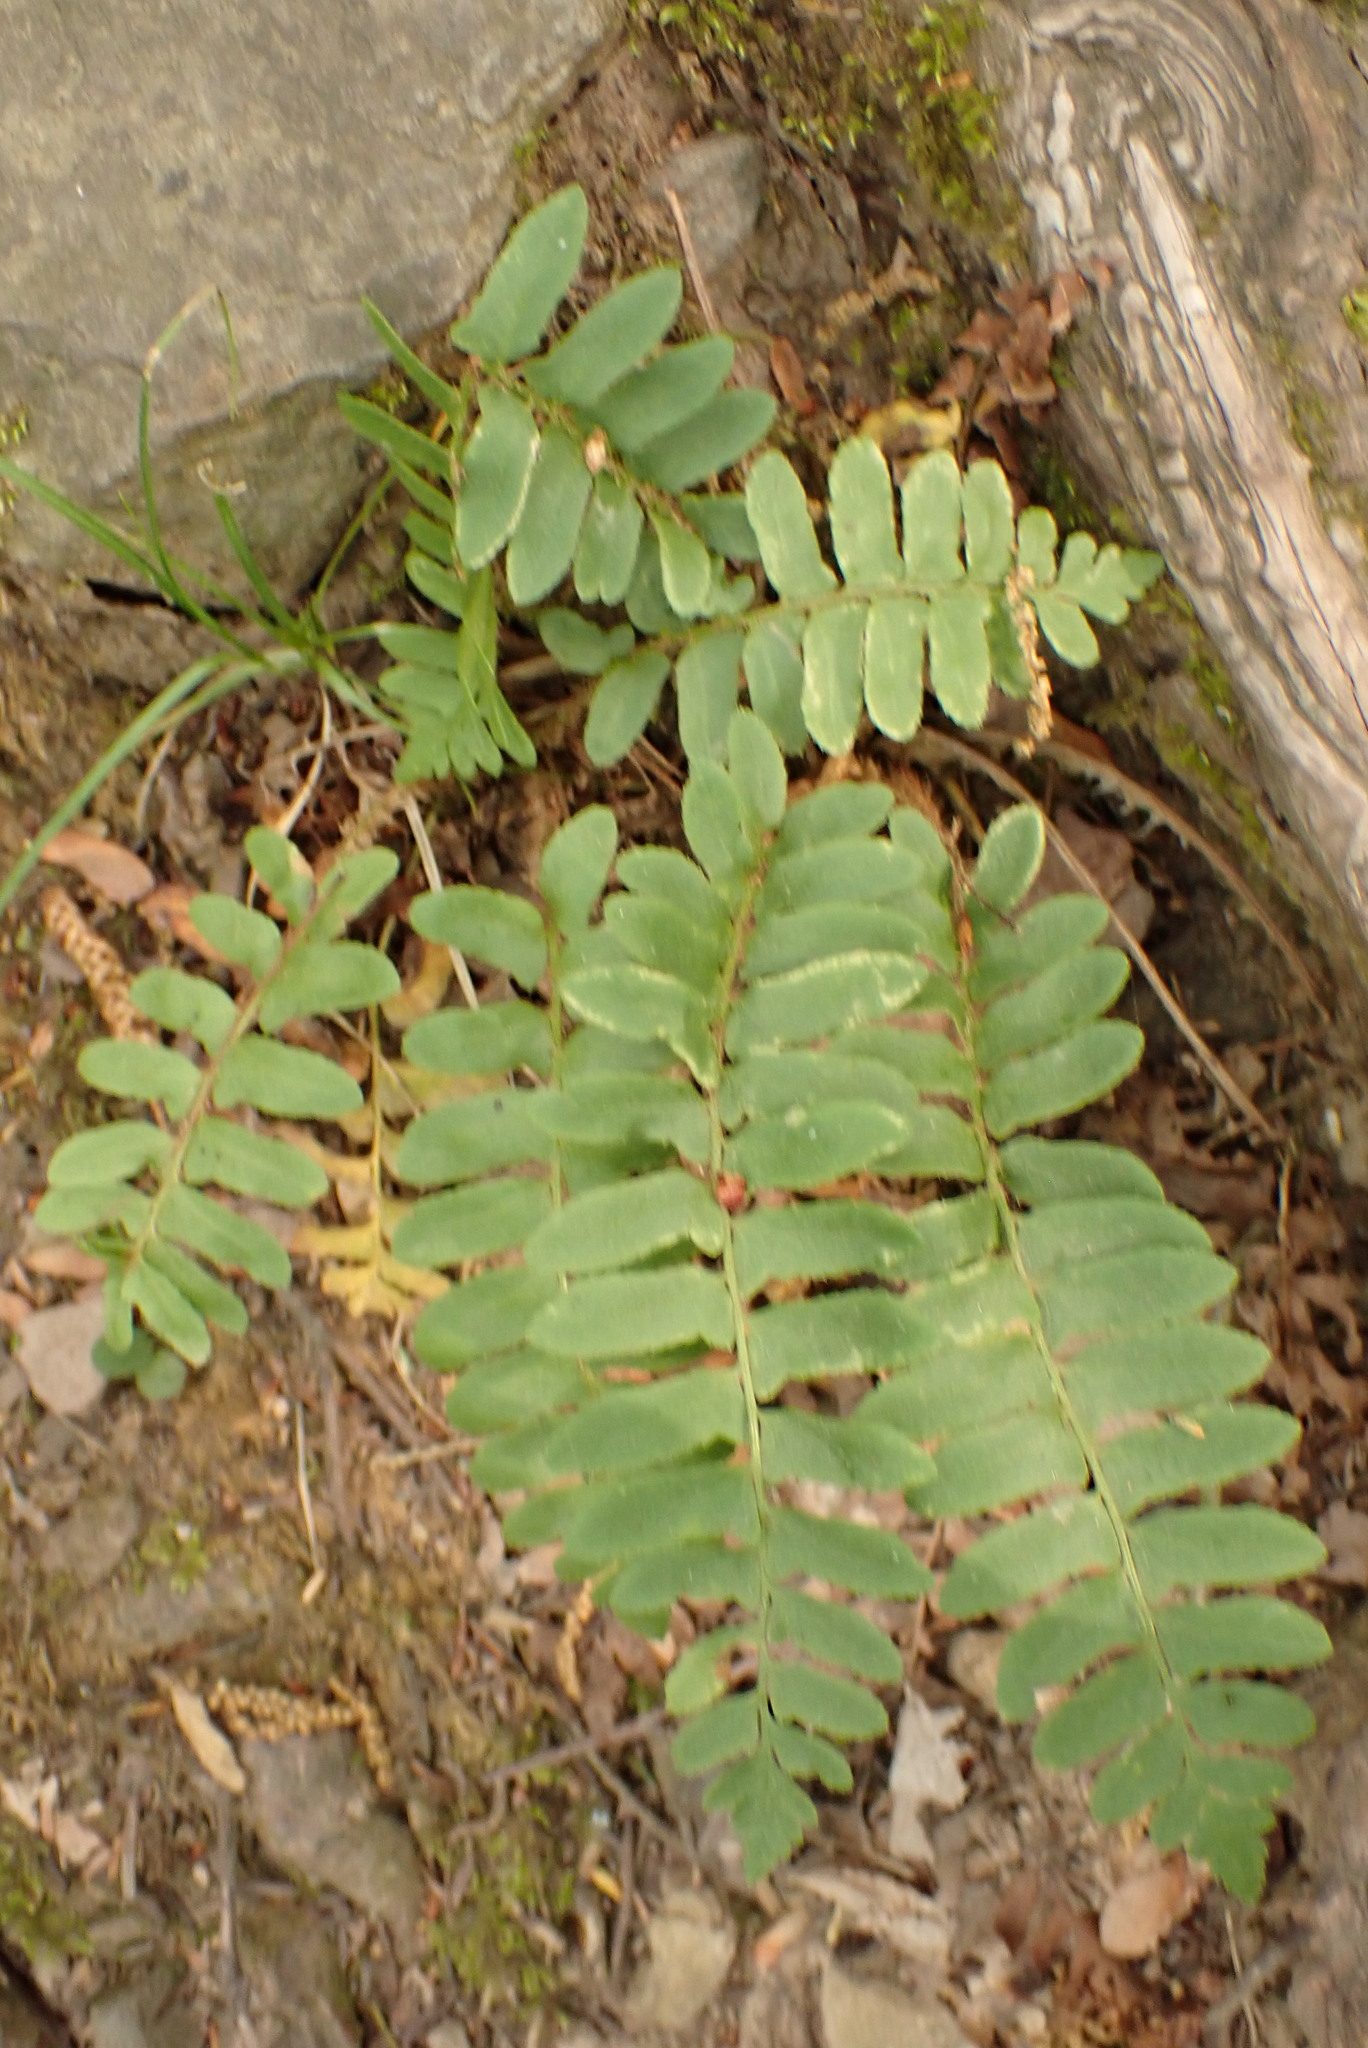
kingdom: Plantae
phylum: Tracheophyta
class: Polypodiopsida
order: Polypodiales
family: Dryopteridaceae
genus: Polystichum
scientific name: Polystichum acrostichoides
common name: Christmas fern
